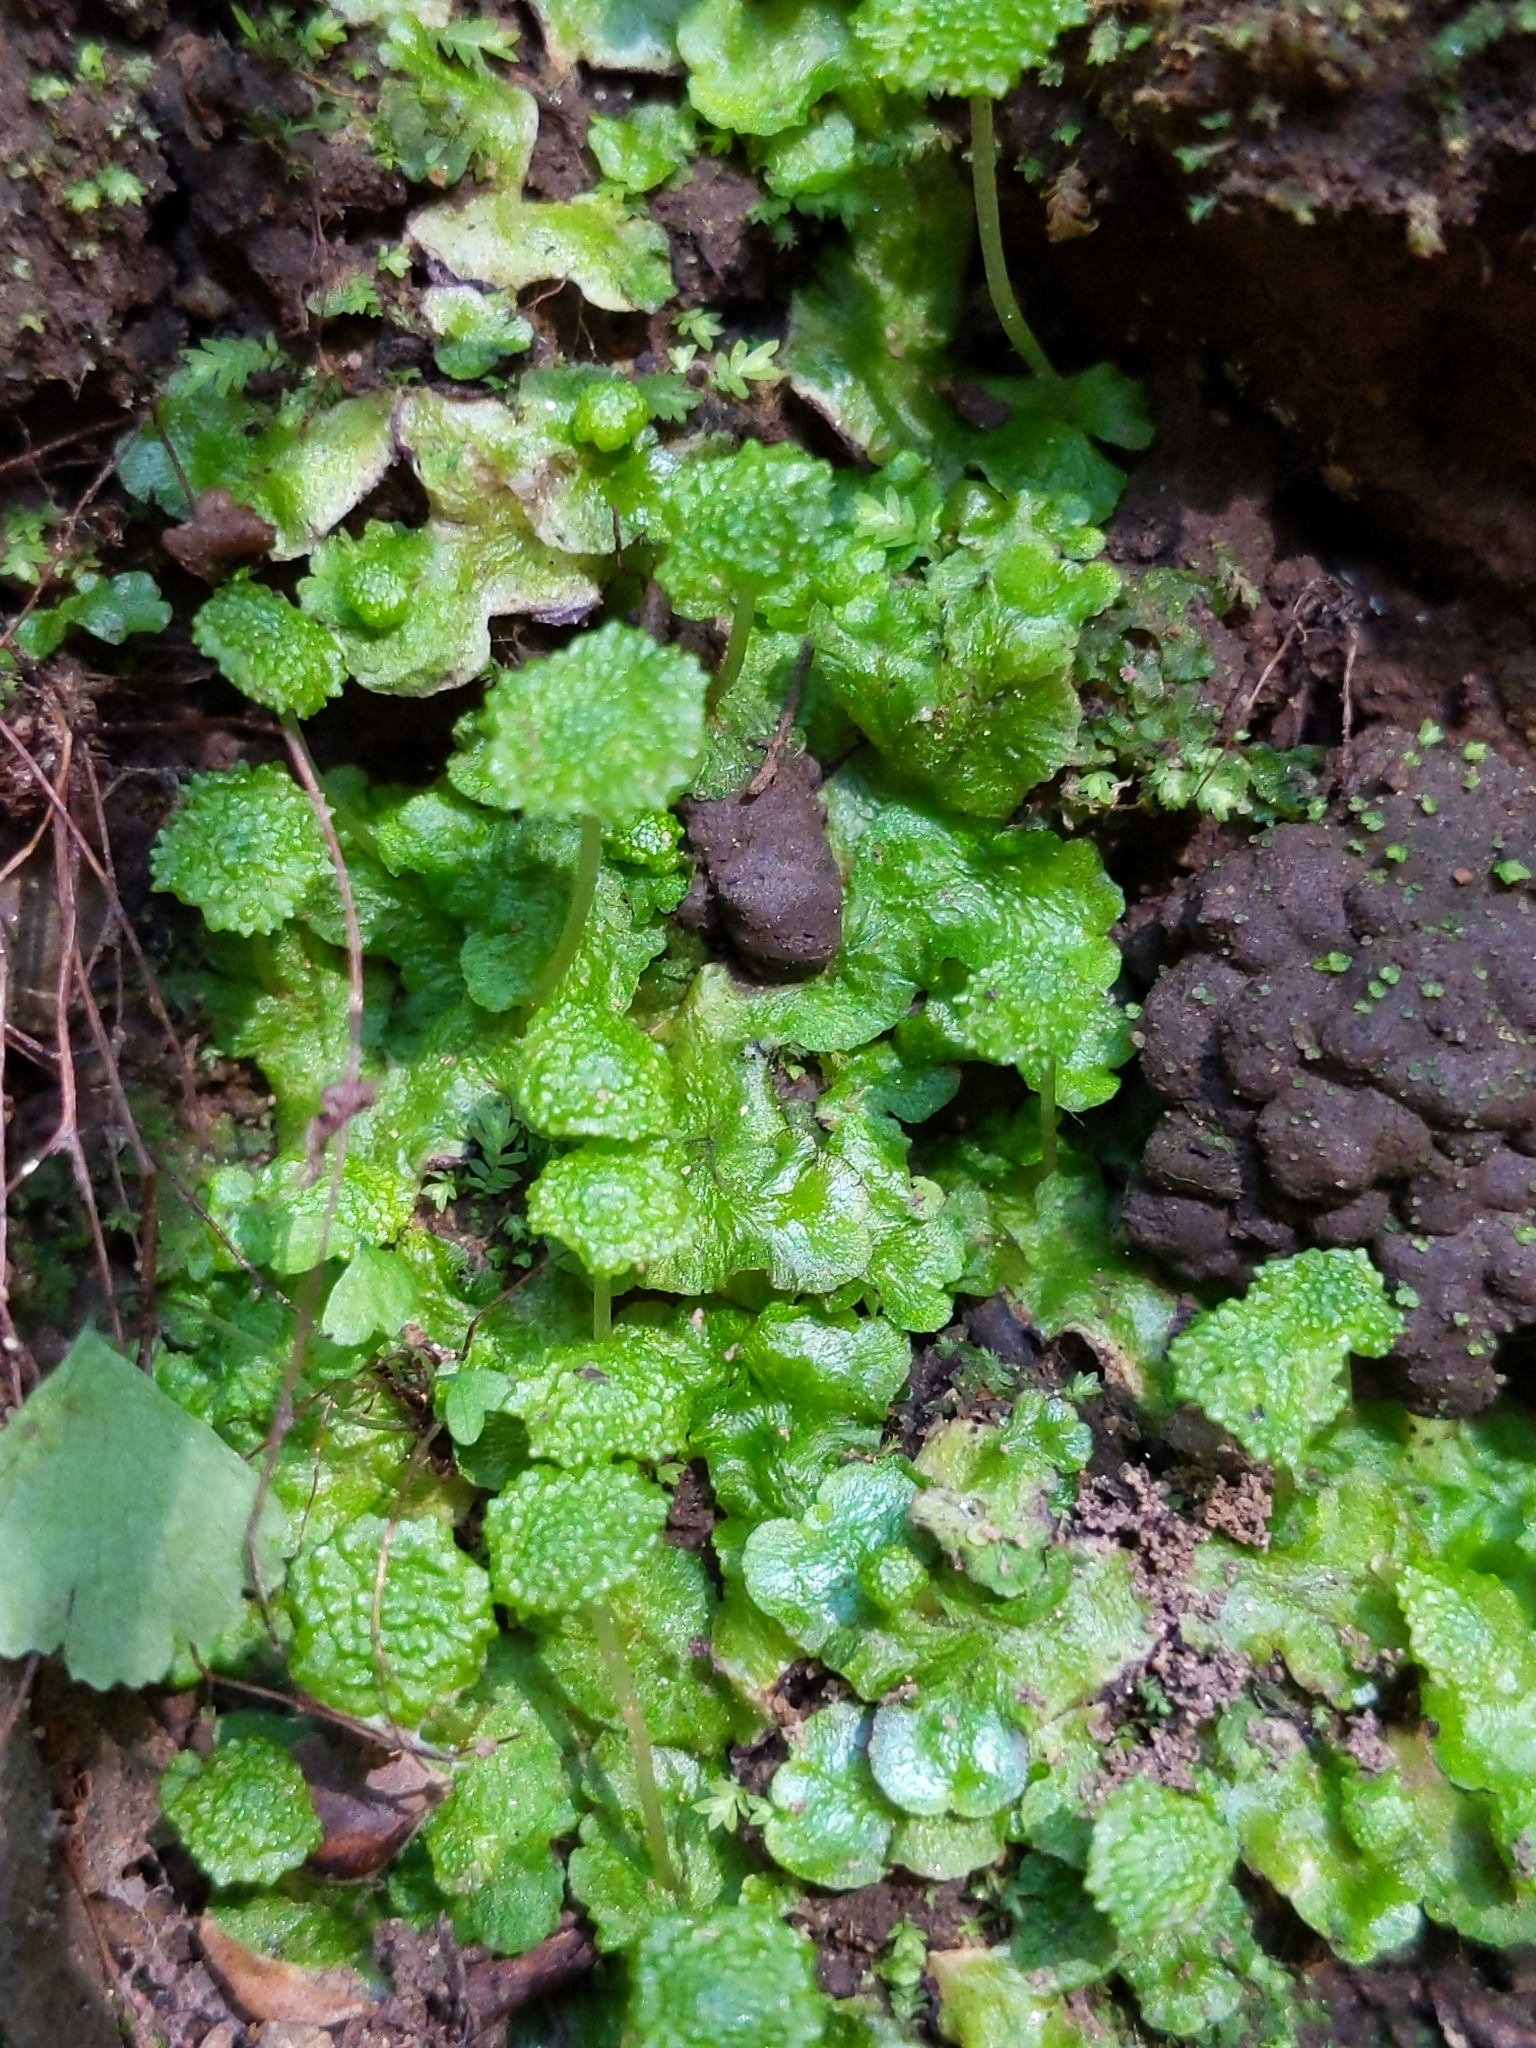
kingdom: Plantae
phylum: Marchantiophyta
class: Marchantiopsida
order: Marchantiales
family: Aytoniaceae
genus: Cryptomitrium
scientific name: Cryptomitrium tenerum
